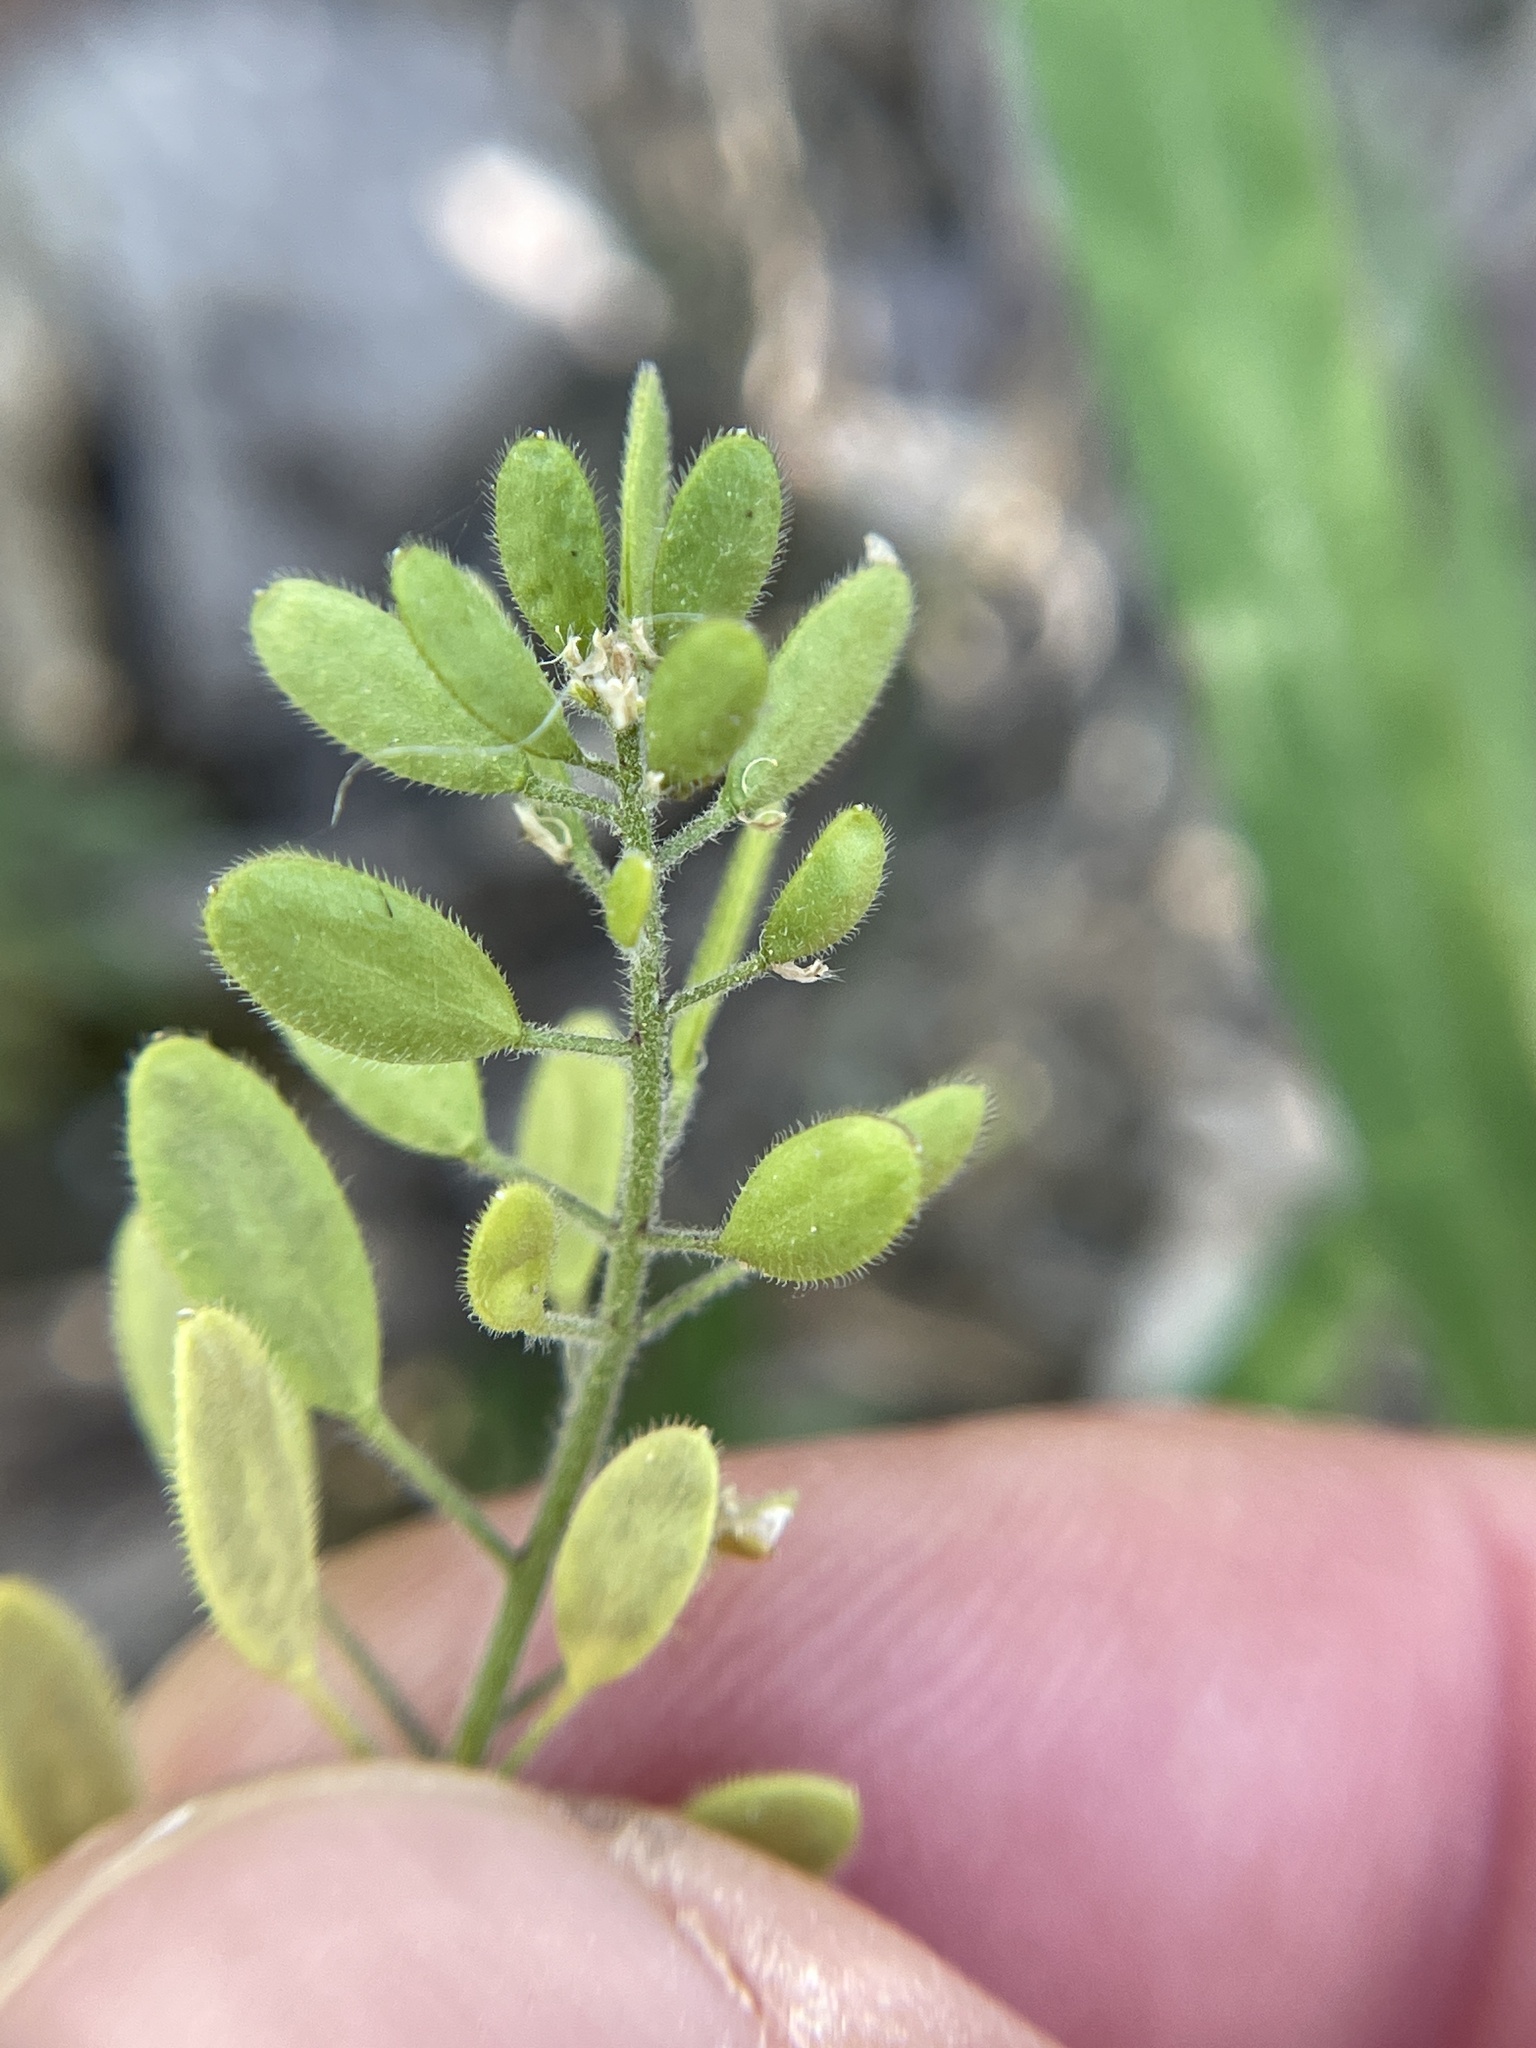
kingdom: Plantae
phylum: Tracheophyta
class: Magnoliopsida
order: Brassicales
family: Brassicaceae
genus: Tomostima
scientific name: Tomostima platycarpa
